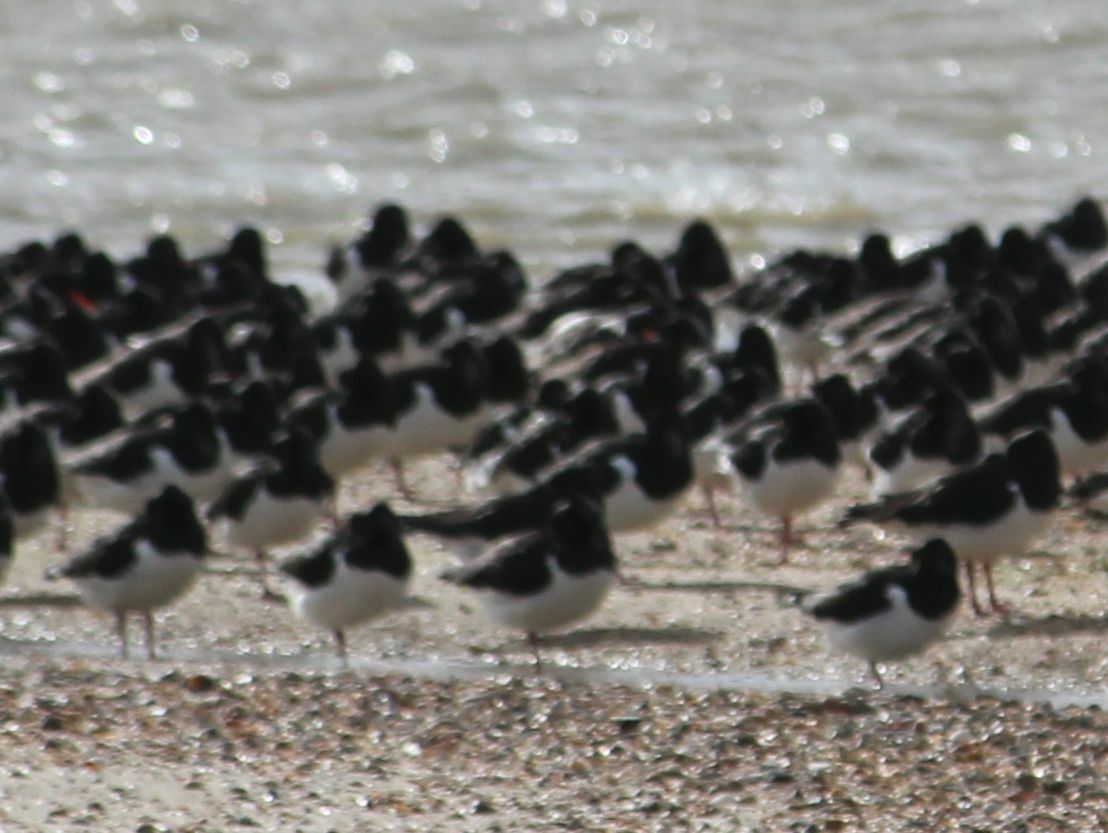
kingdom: Animalia
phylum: Chordata
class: Aves
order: Charadriiformes
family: Haematopodidae
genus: Haematopus
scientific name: Haematopus ostralegus
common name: Eurasian oystercatcher
